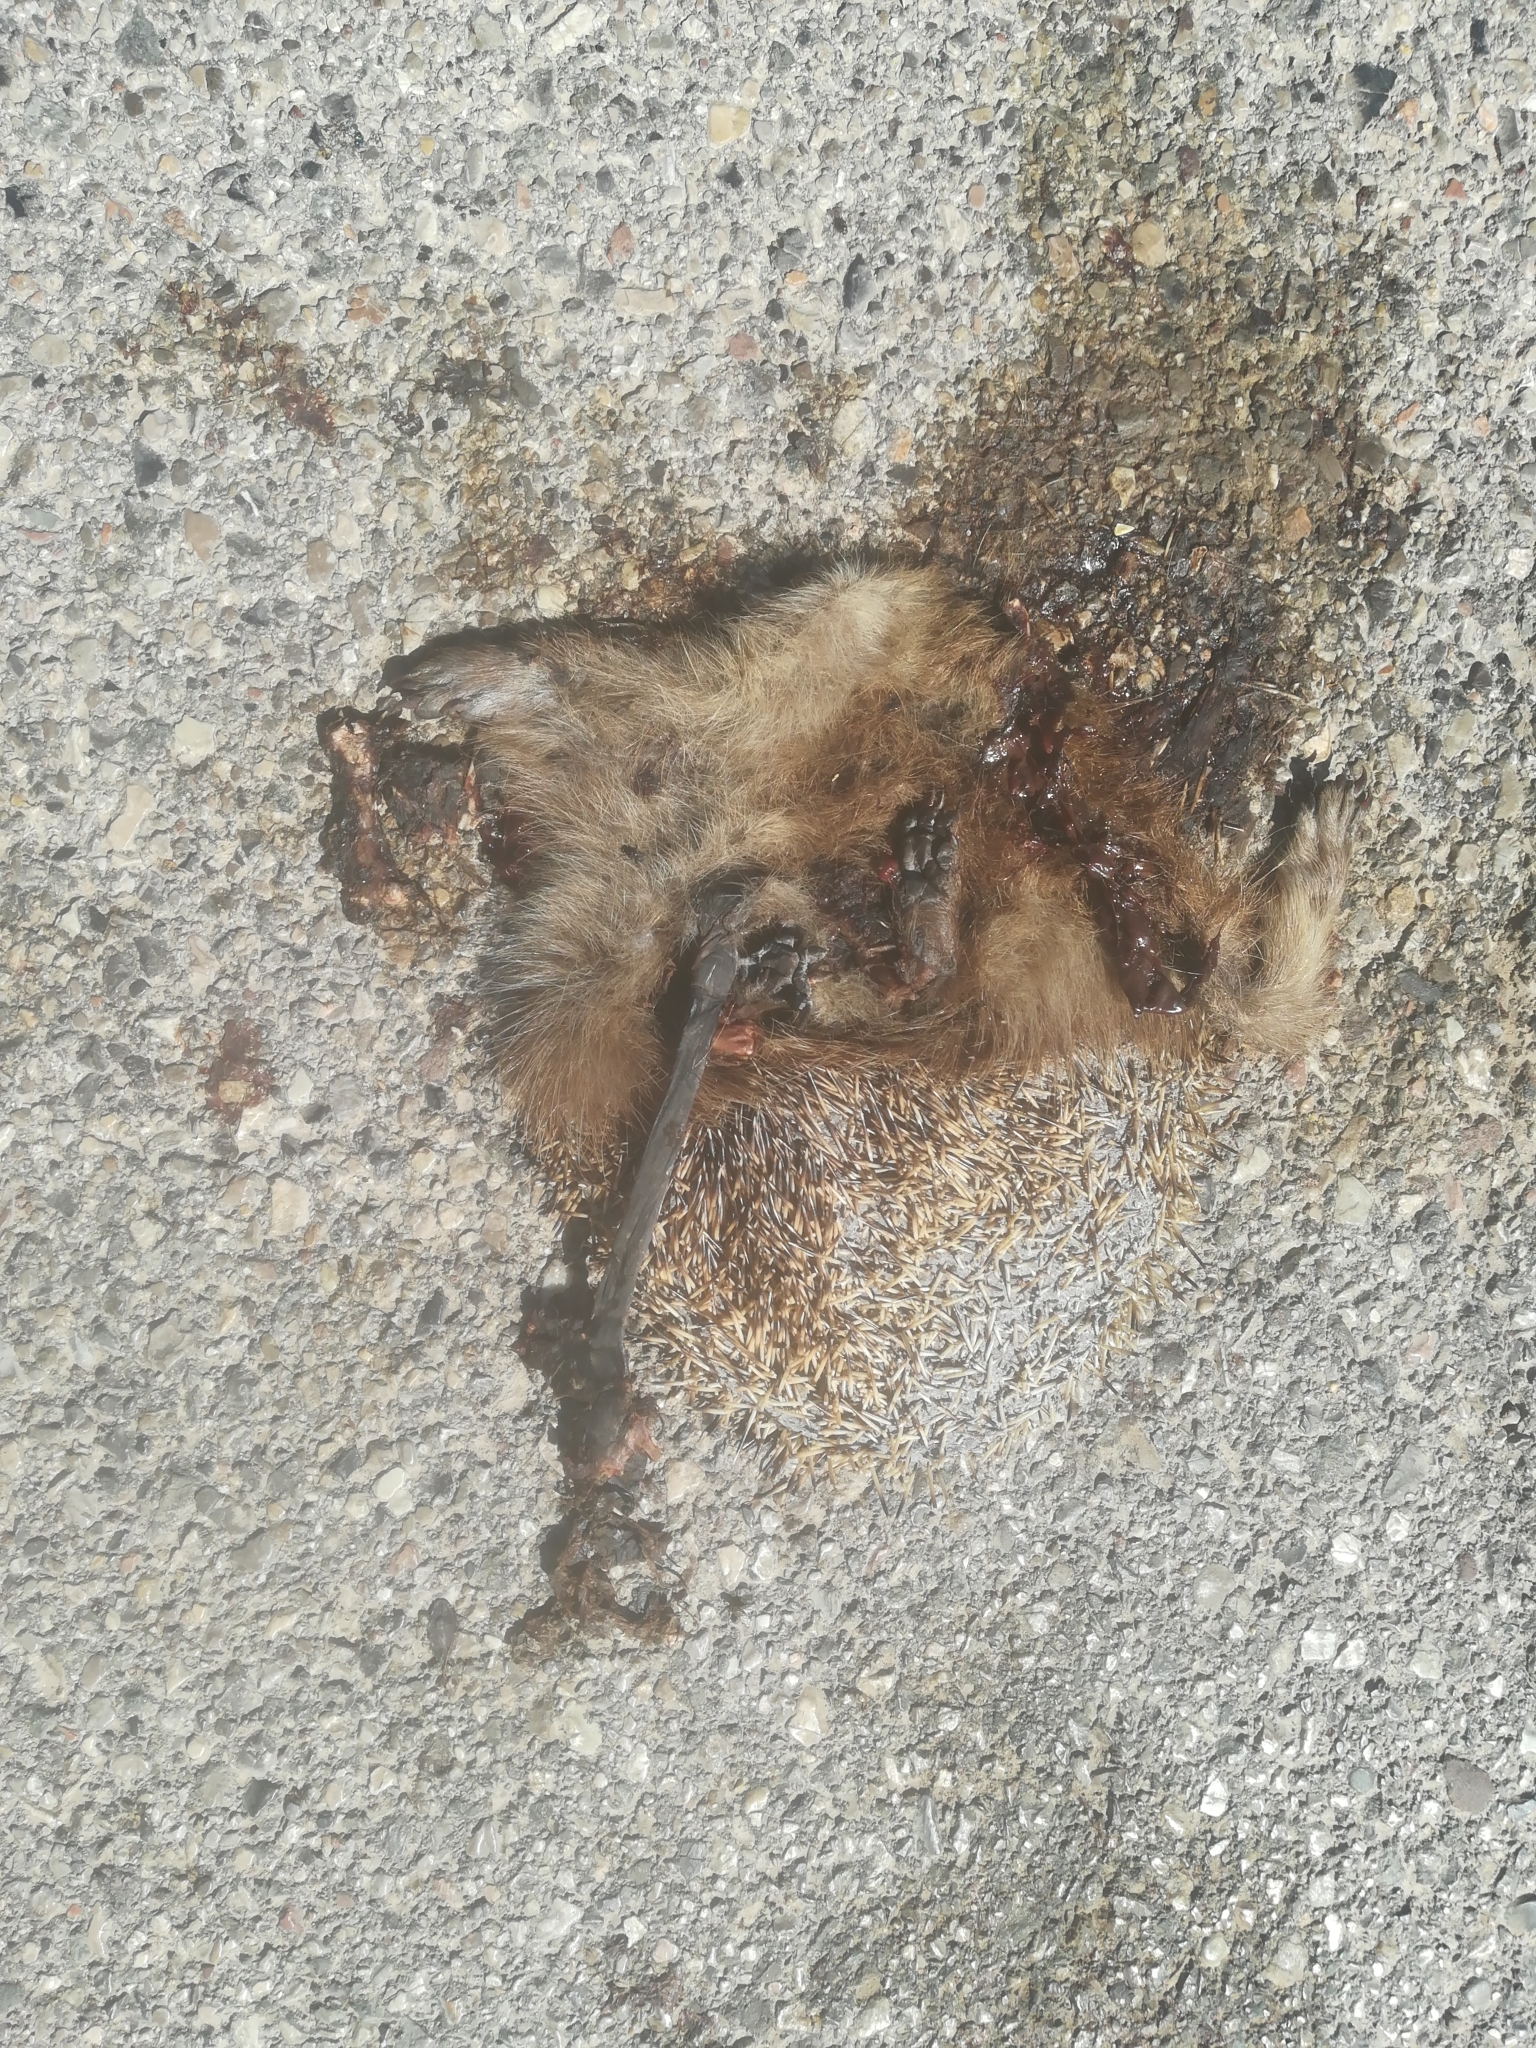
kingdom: Animalia
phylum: Chordata
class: Mammalia
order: Erinaceomorpha
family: Erinaceidae
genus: Erinaceus
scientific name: Erinaceus europaeus
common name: West european hedgehog
